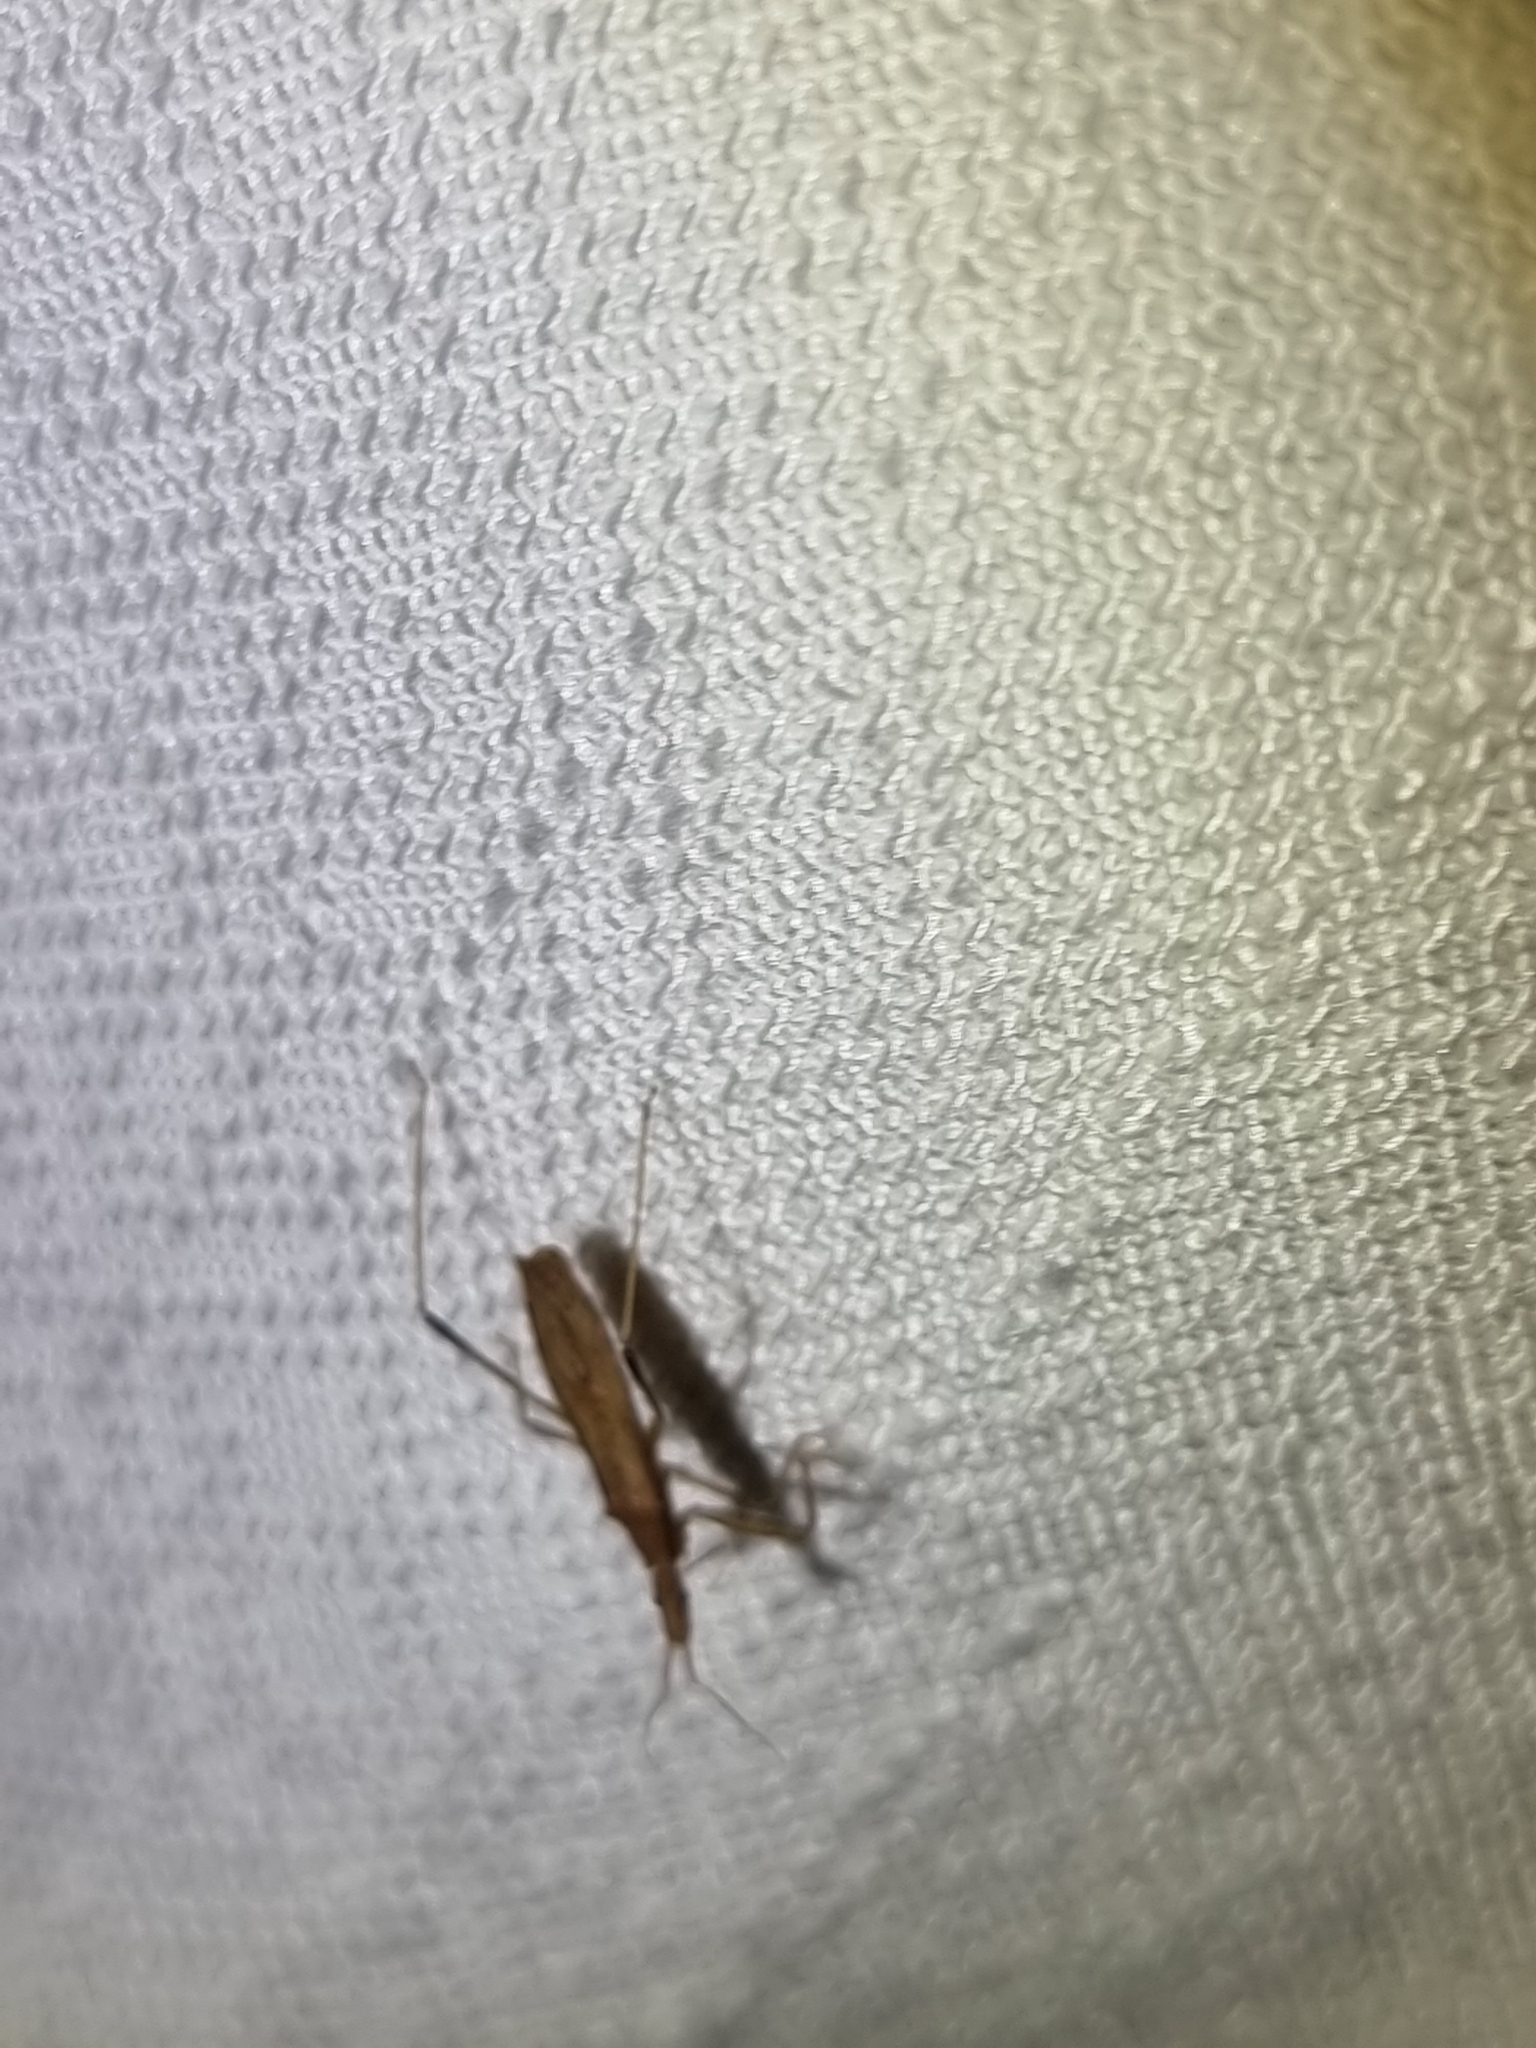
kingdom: Animalia
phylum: Arthropoda
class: Insecta
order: Hemiptera
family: Reduviidae
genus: Sastrapada
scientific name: Sastrapada australica
